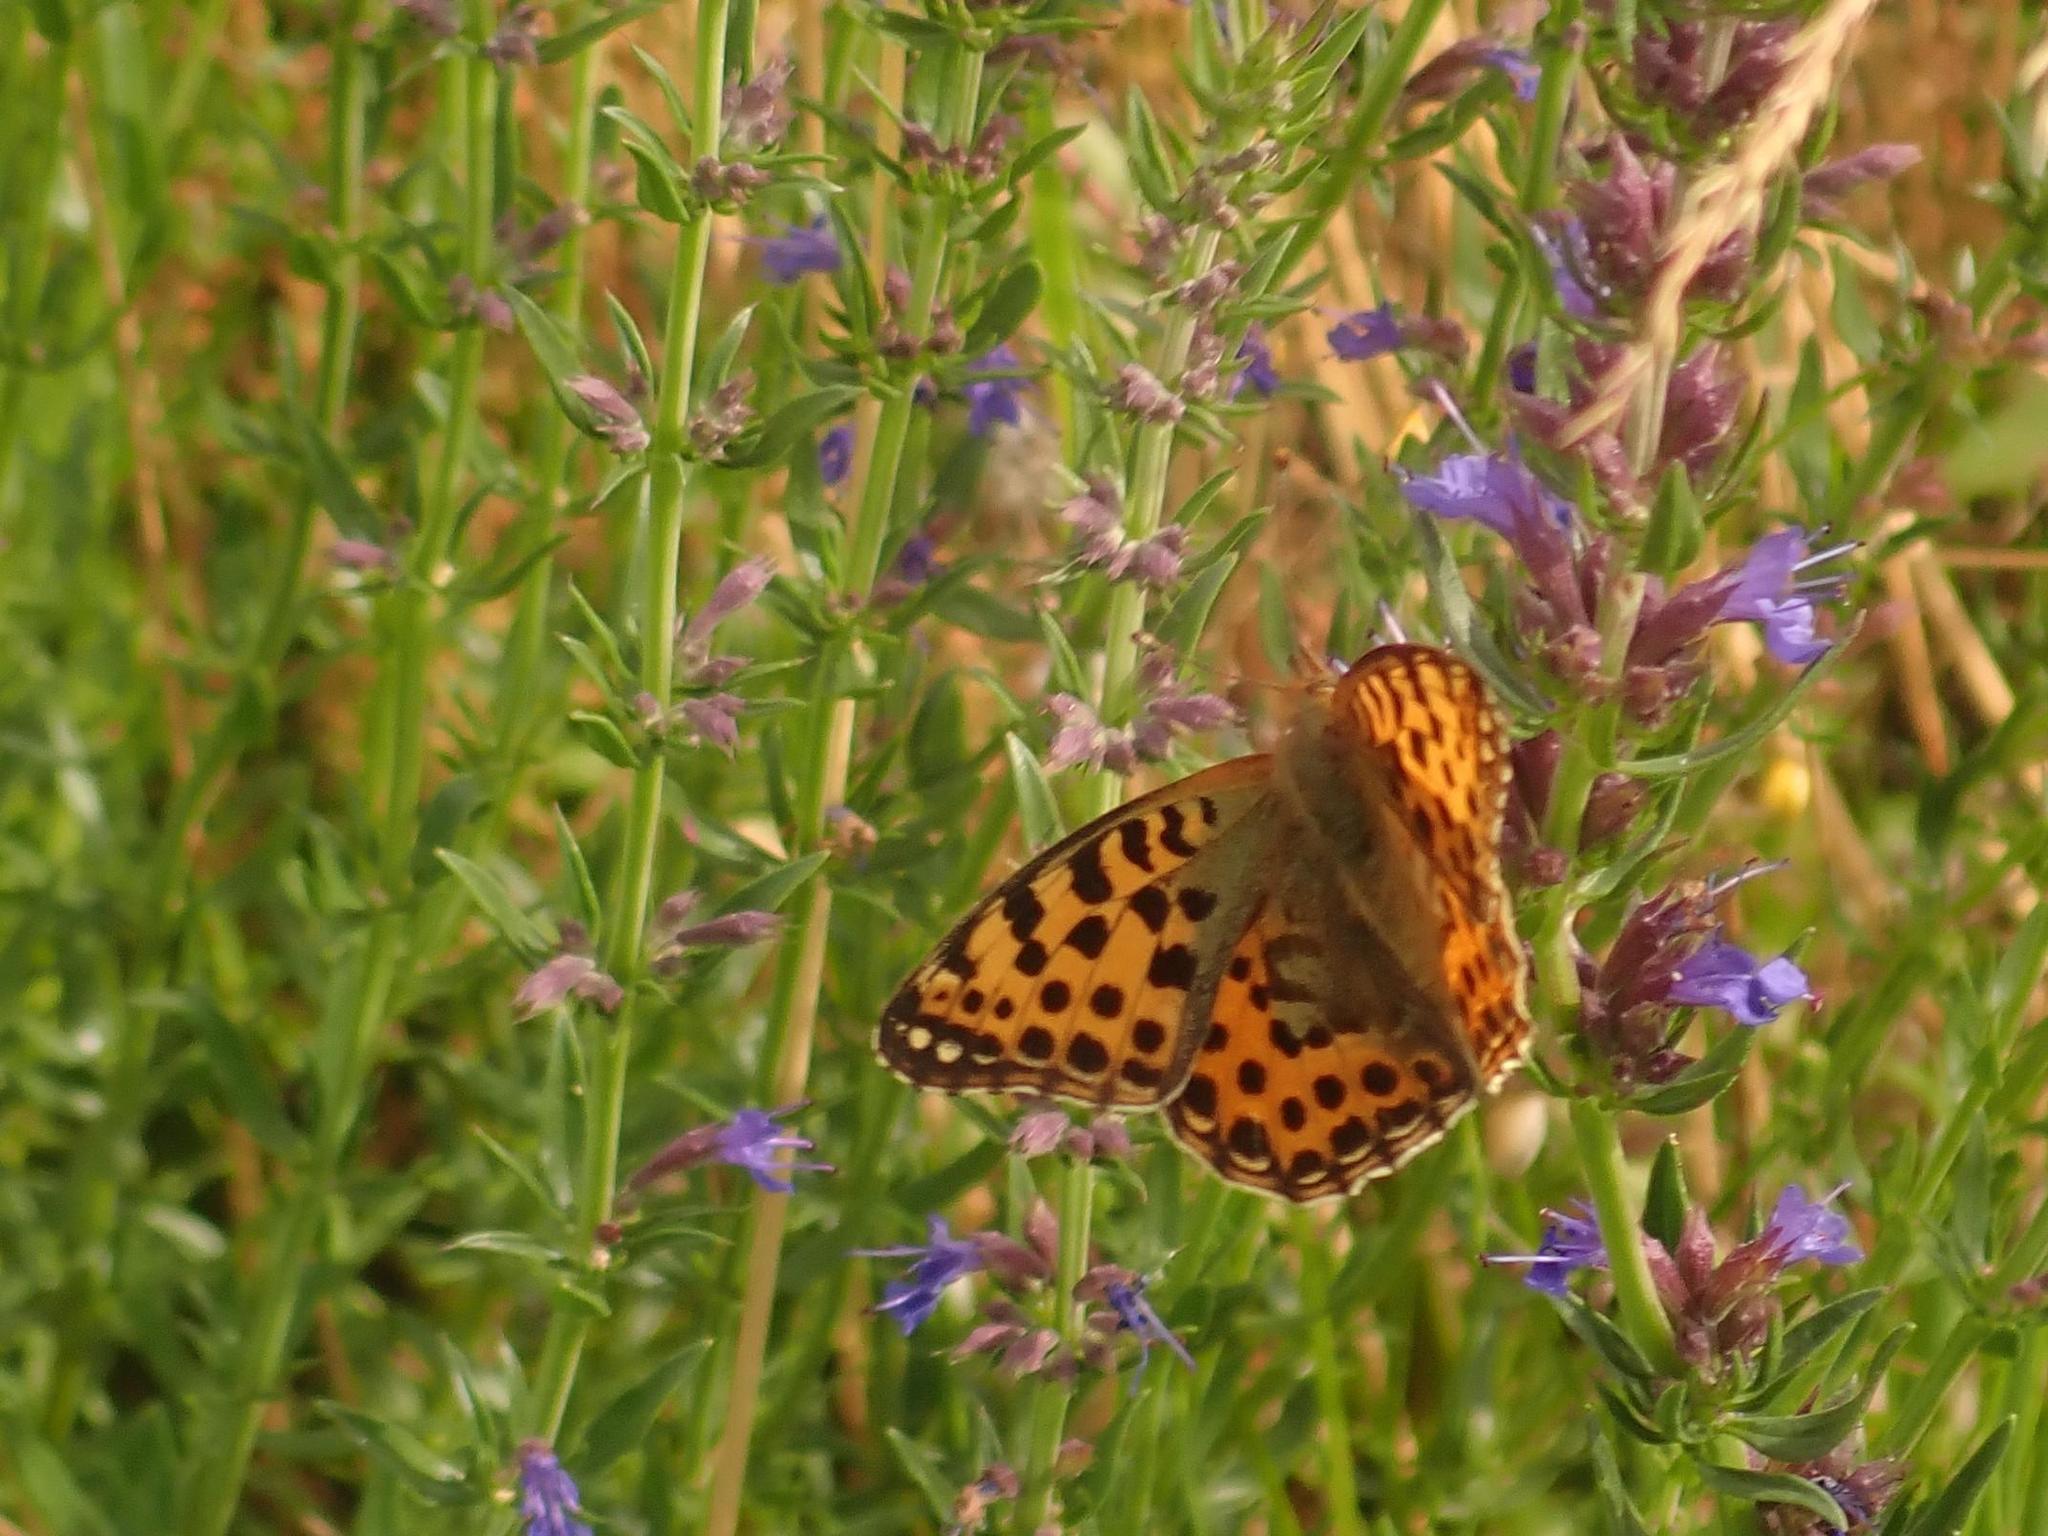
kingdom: Animalia
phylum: Arthropoda
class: Insecta
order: Lepidoptera
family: Nymphalidae
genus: Issoria
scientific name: Issoria lathonia
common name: Queen of spain fritillary
